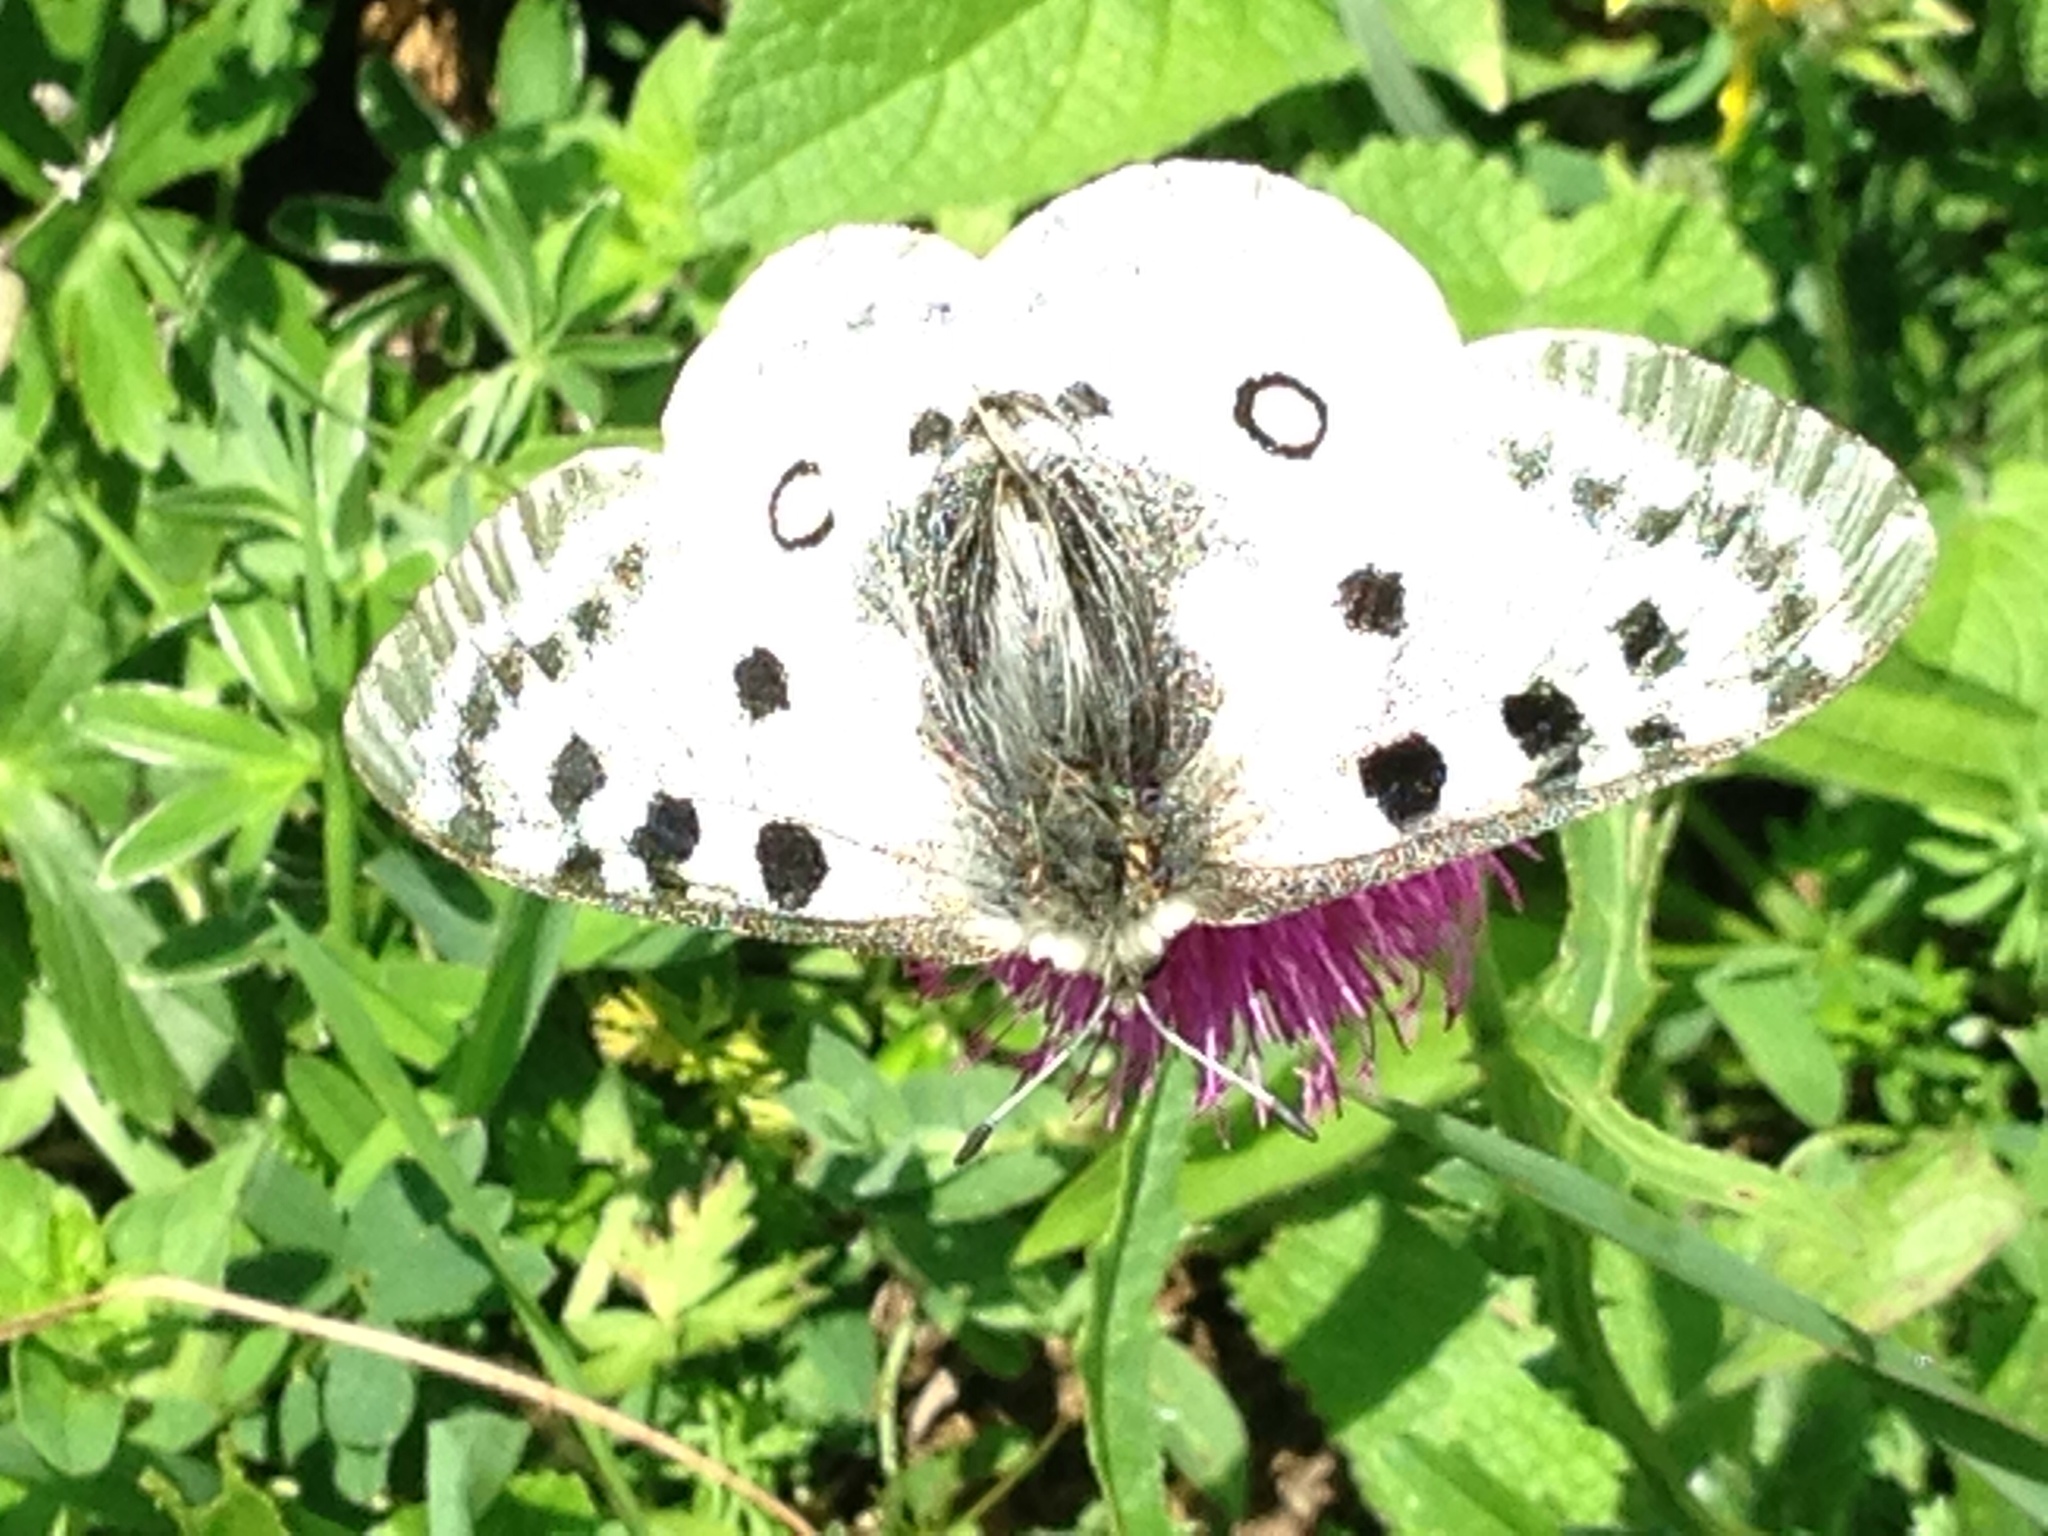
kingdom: Animalia
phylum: Arthropoda
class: Insecta
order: Lepidoptera
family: Papilionidae
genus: Parnassius
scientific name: Parnassius apollo
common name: Apollo
